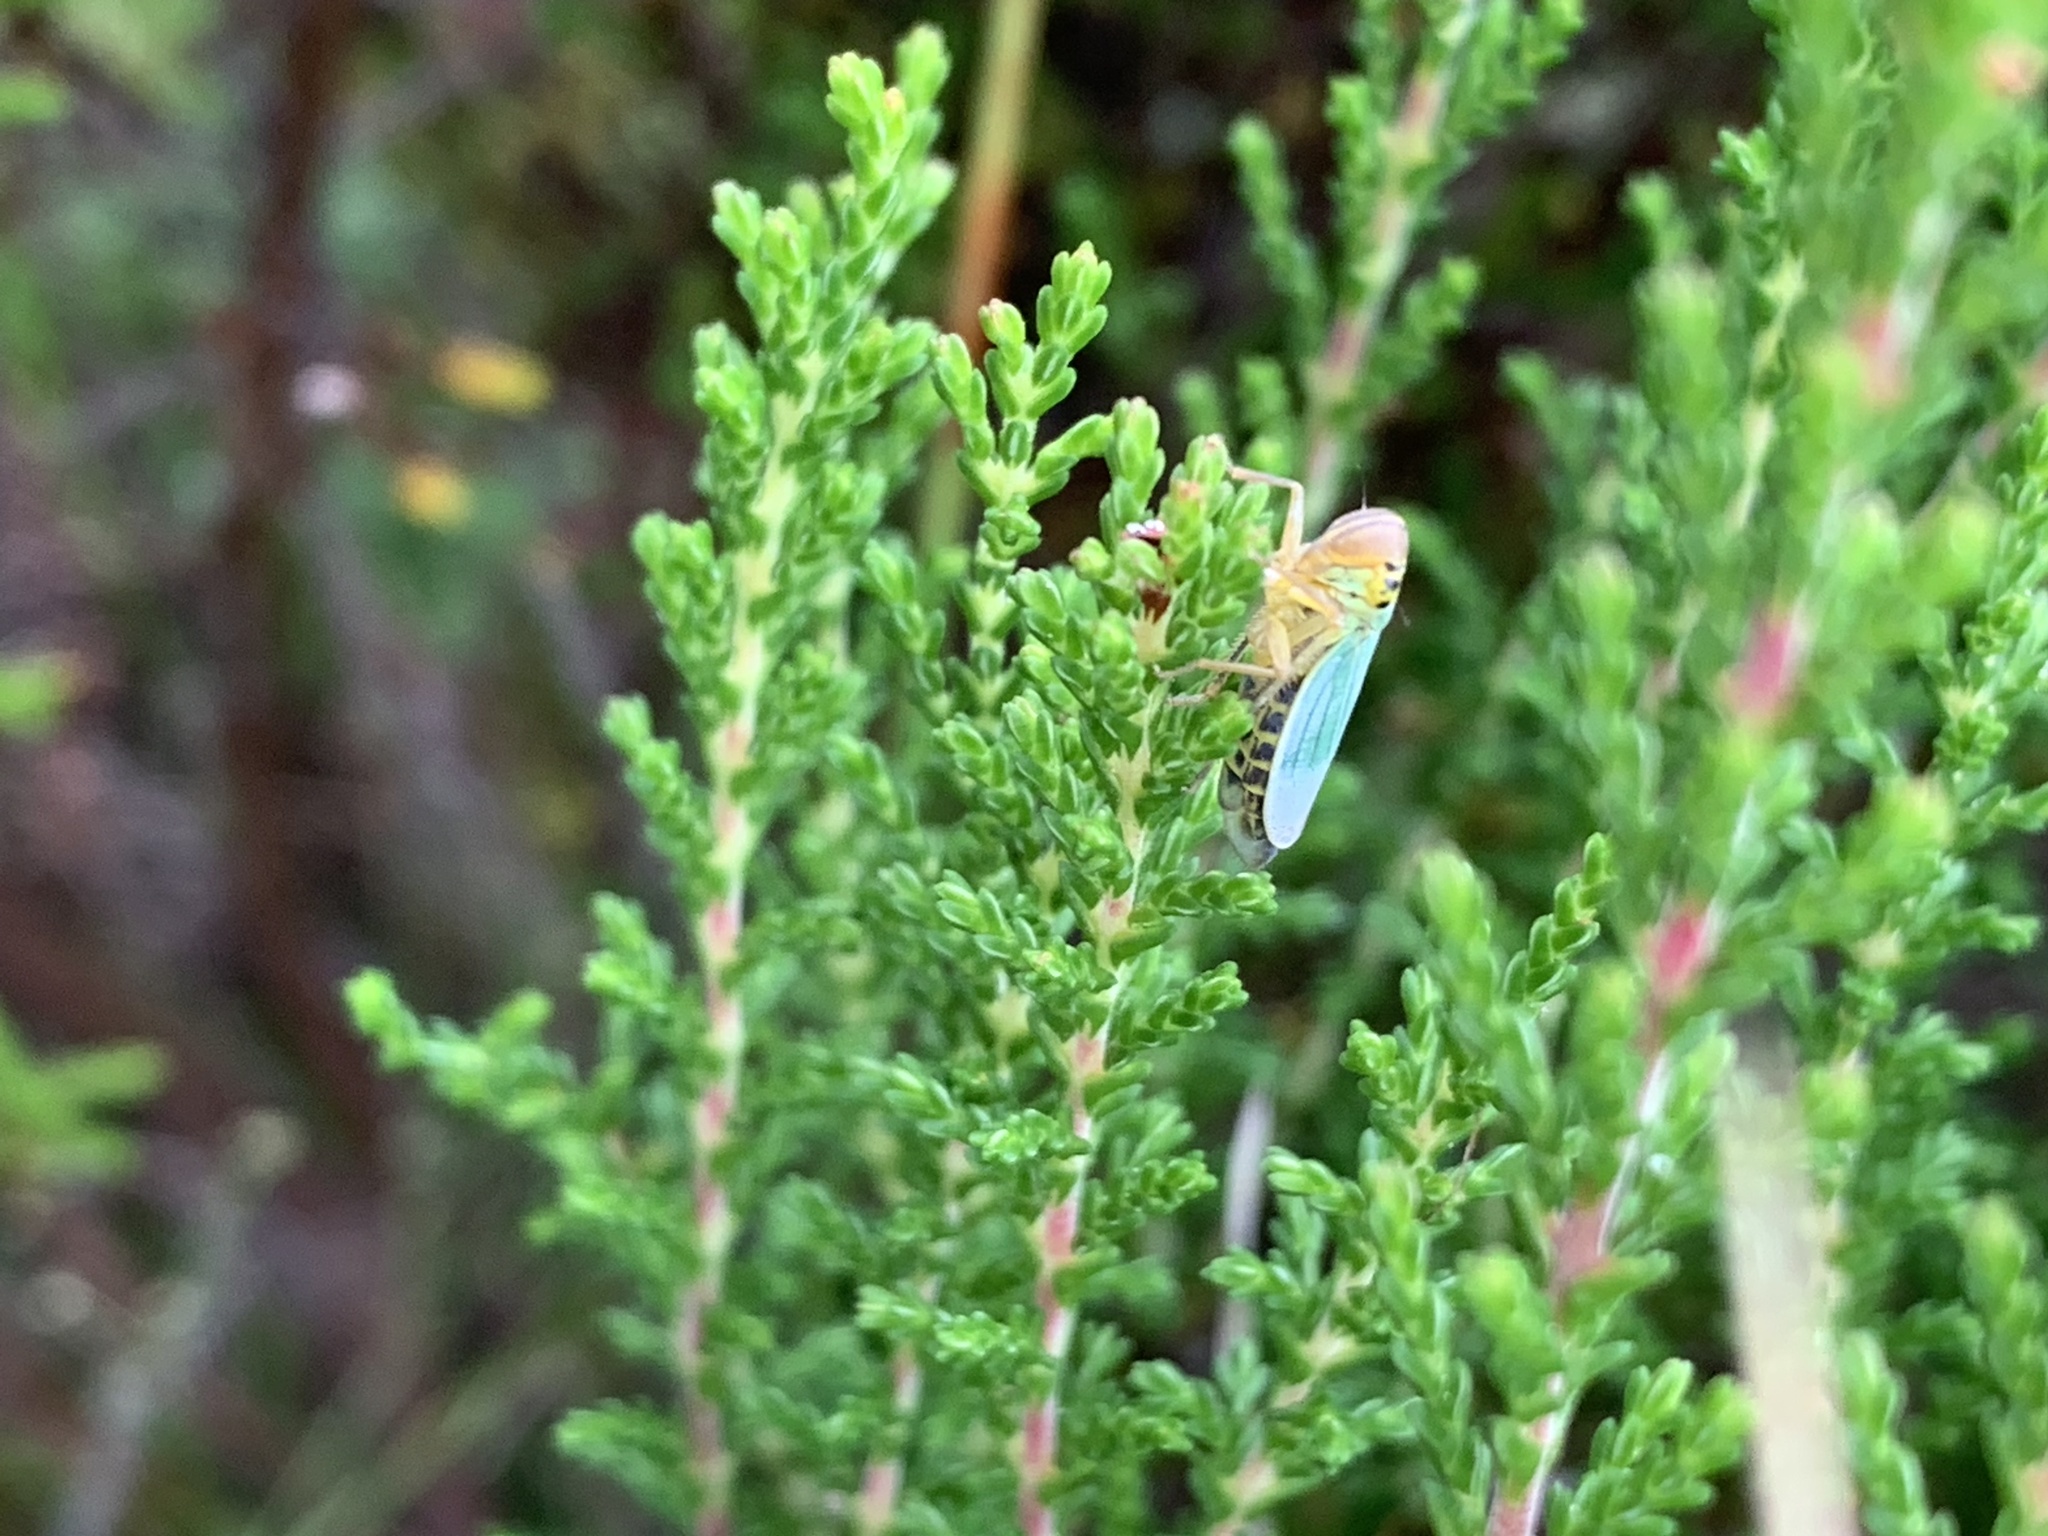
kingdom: Animalia
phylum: Arthropoda
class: Insecta
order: Hemiptera
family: Cicadellidae
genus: Cicadella
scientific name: Cicadella viridis
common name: Leafhopper
